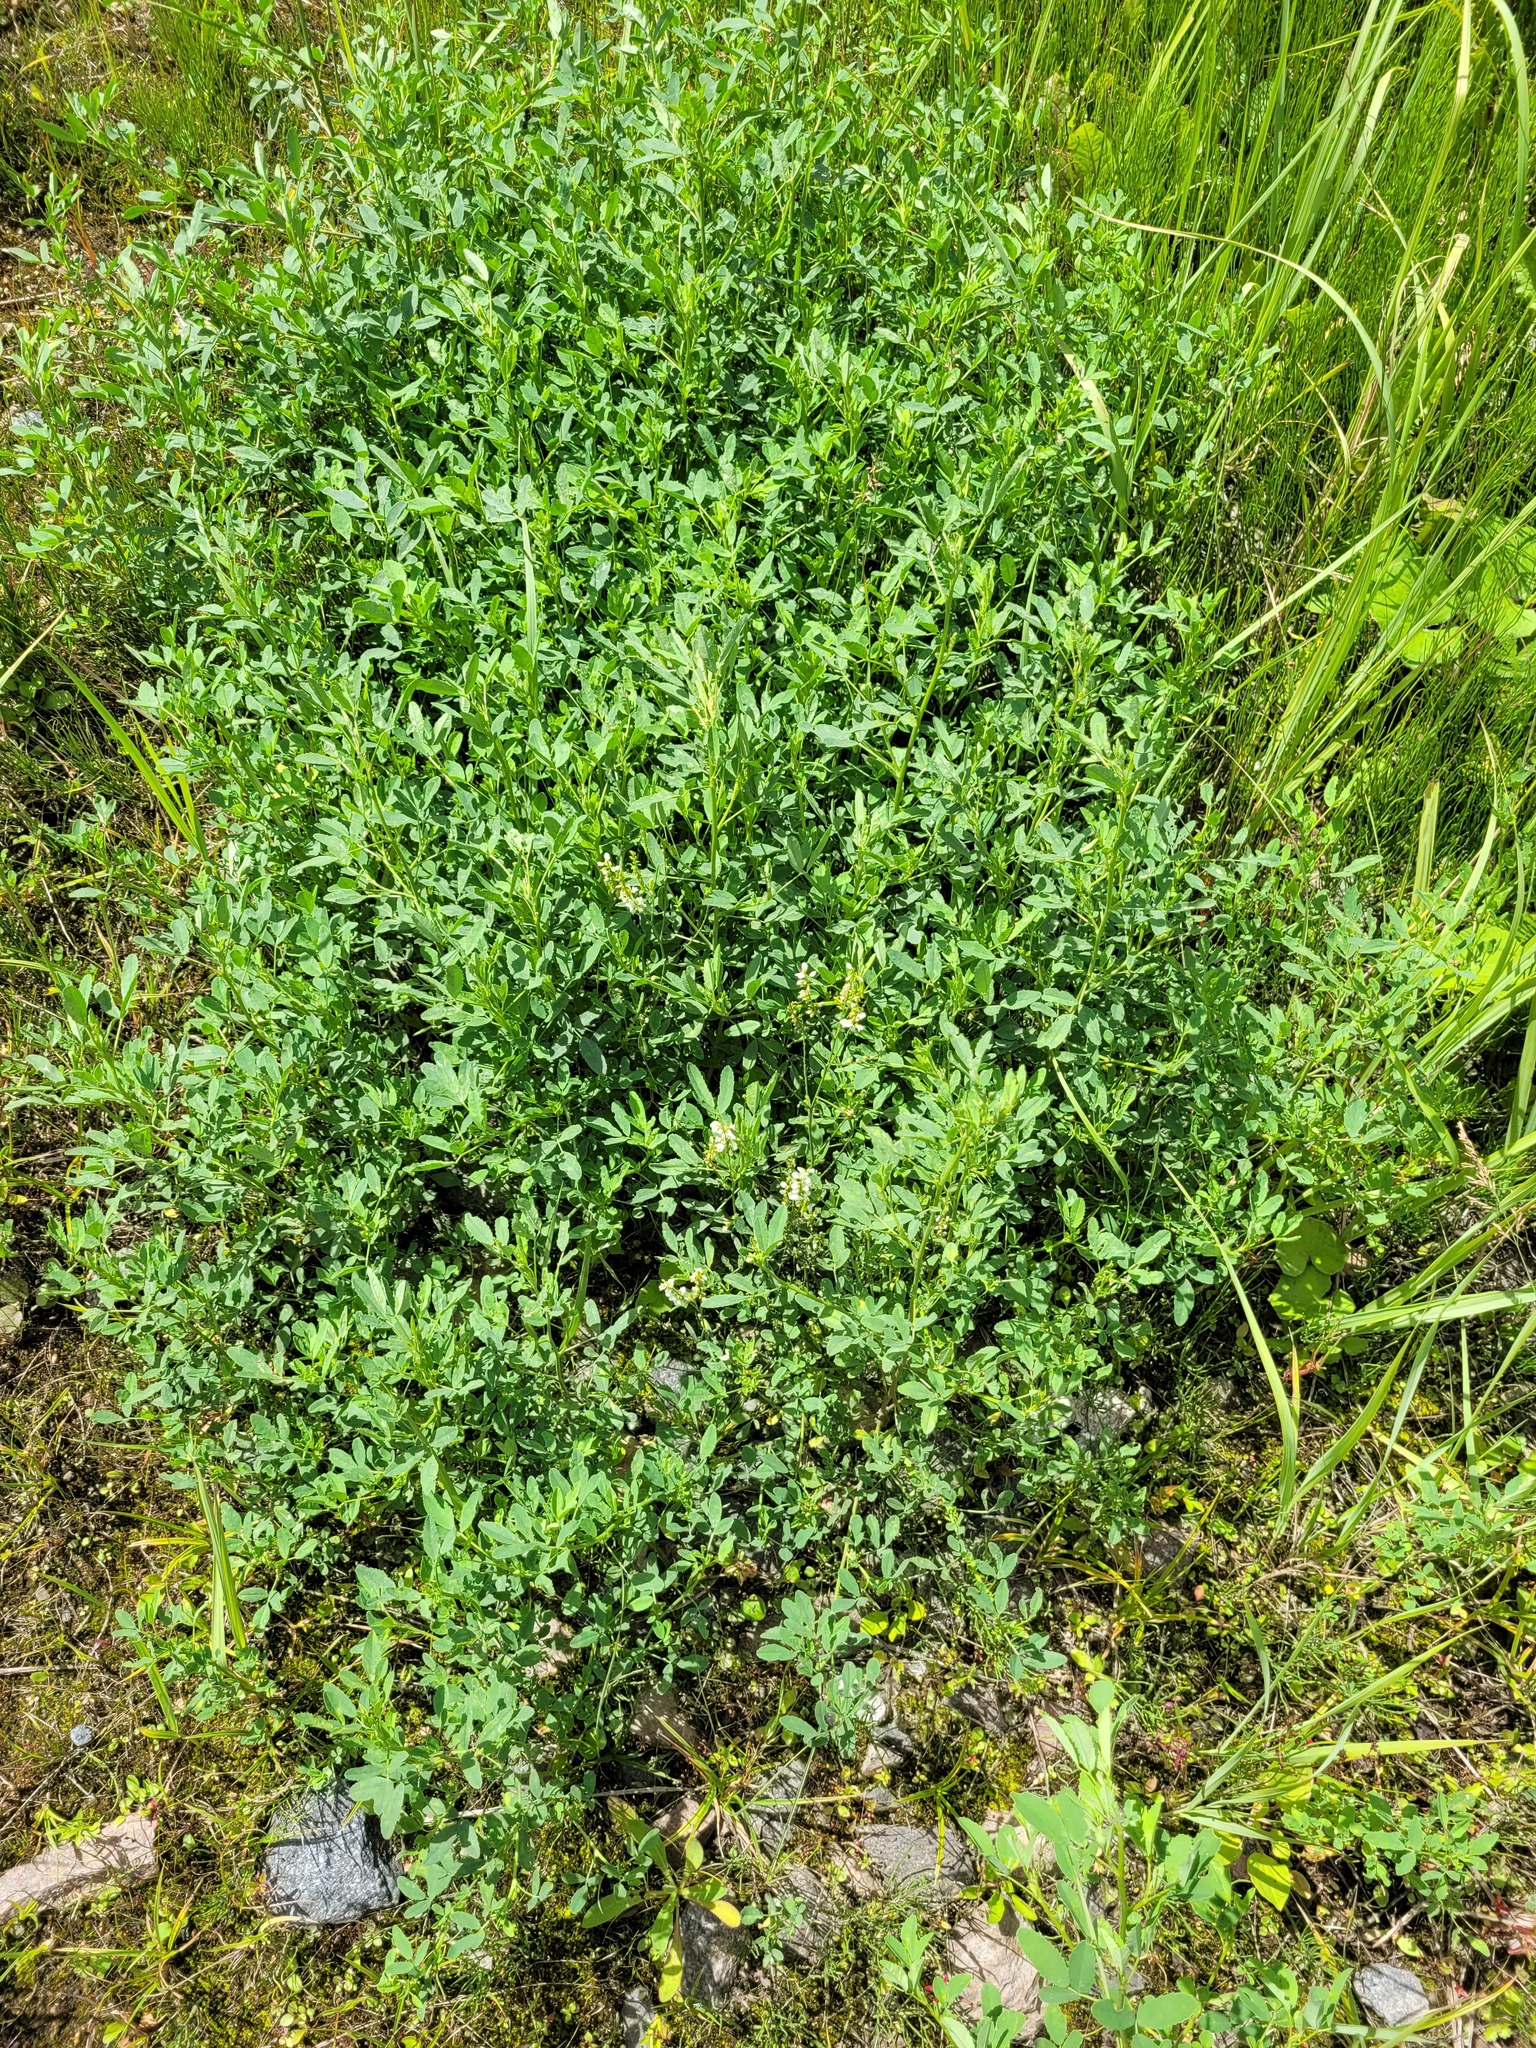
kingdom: Plantae
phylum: Tracheophyta
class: Magnoliopsida
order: Fabales
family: Fabaceae
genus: Melilotus
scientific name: Melilotus albus
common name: White melilot
